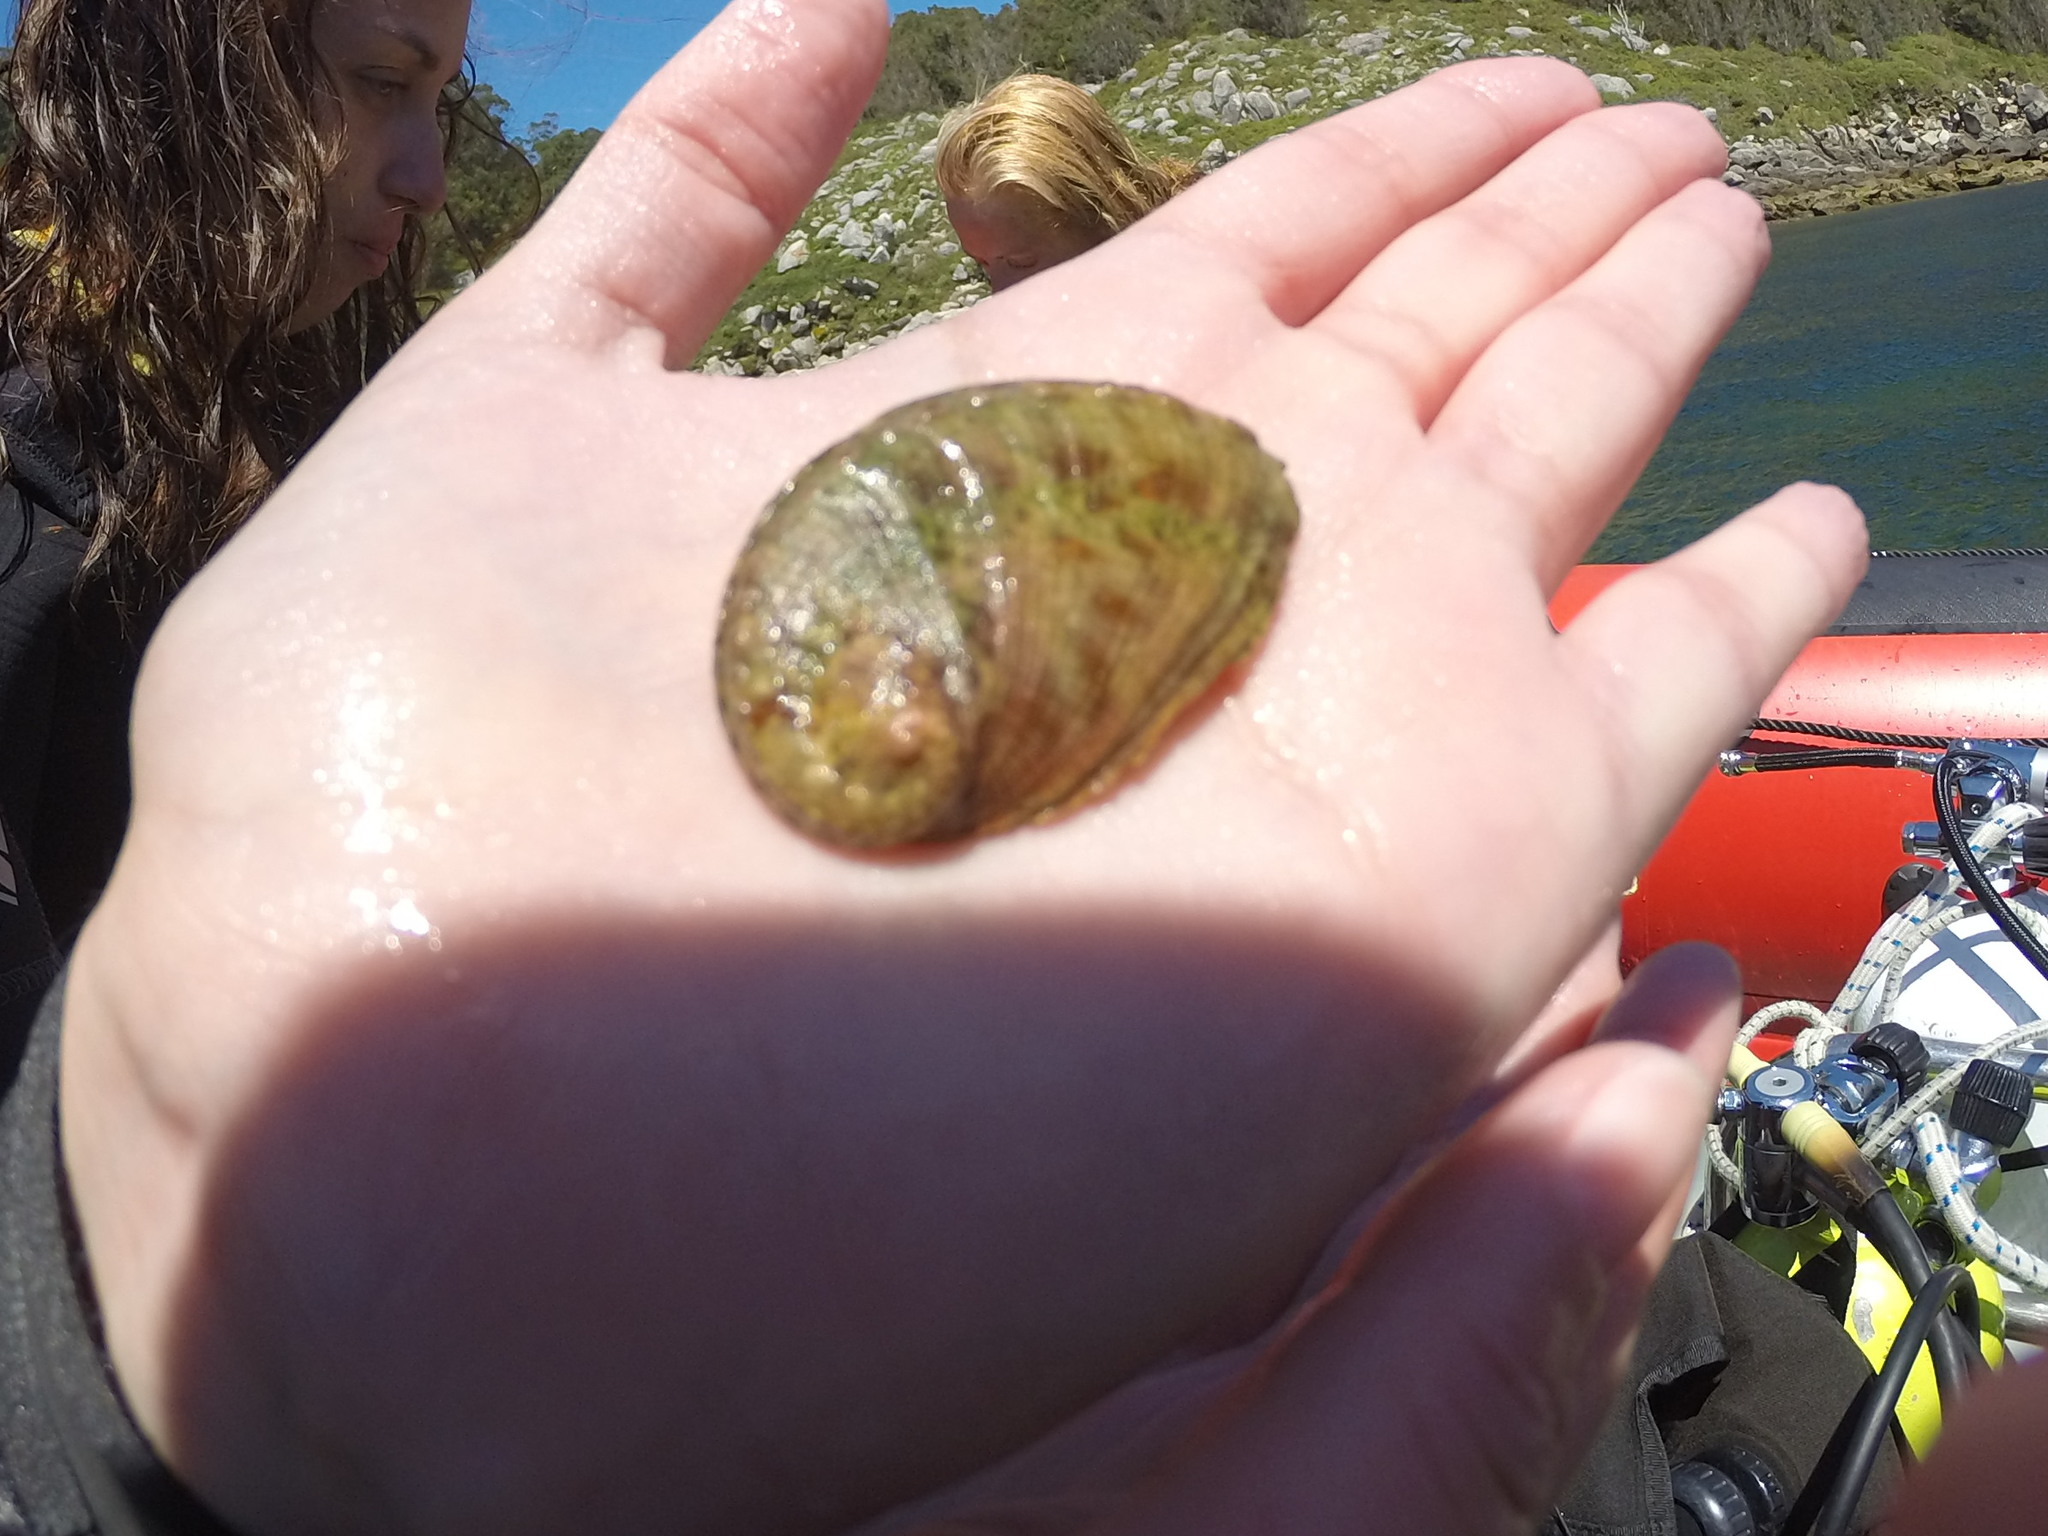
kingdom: Animalia
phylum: Mollusca
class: Gastropoda
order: Lepetellida
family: Haliotidae
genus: Haliotis
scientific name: Haliotis tuberculata
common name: Green ormer
